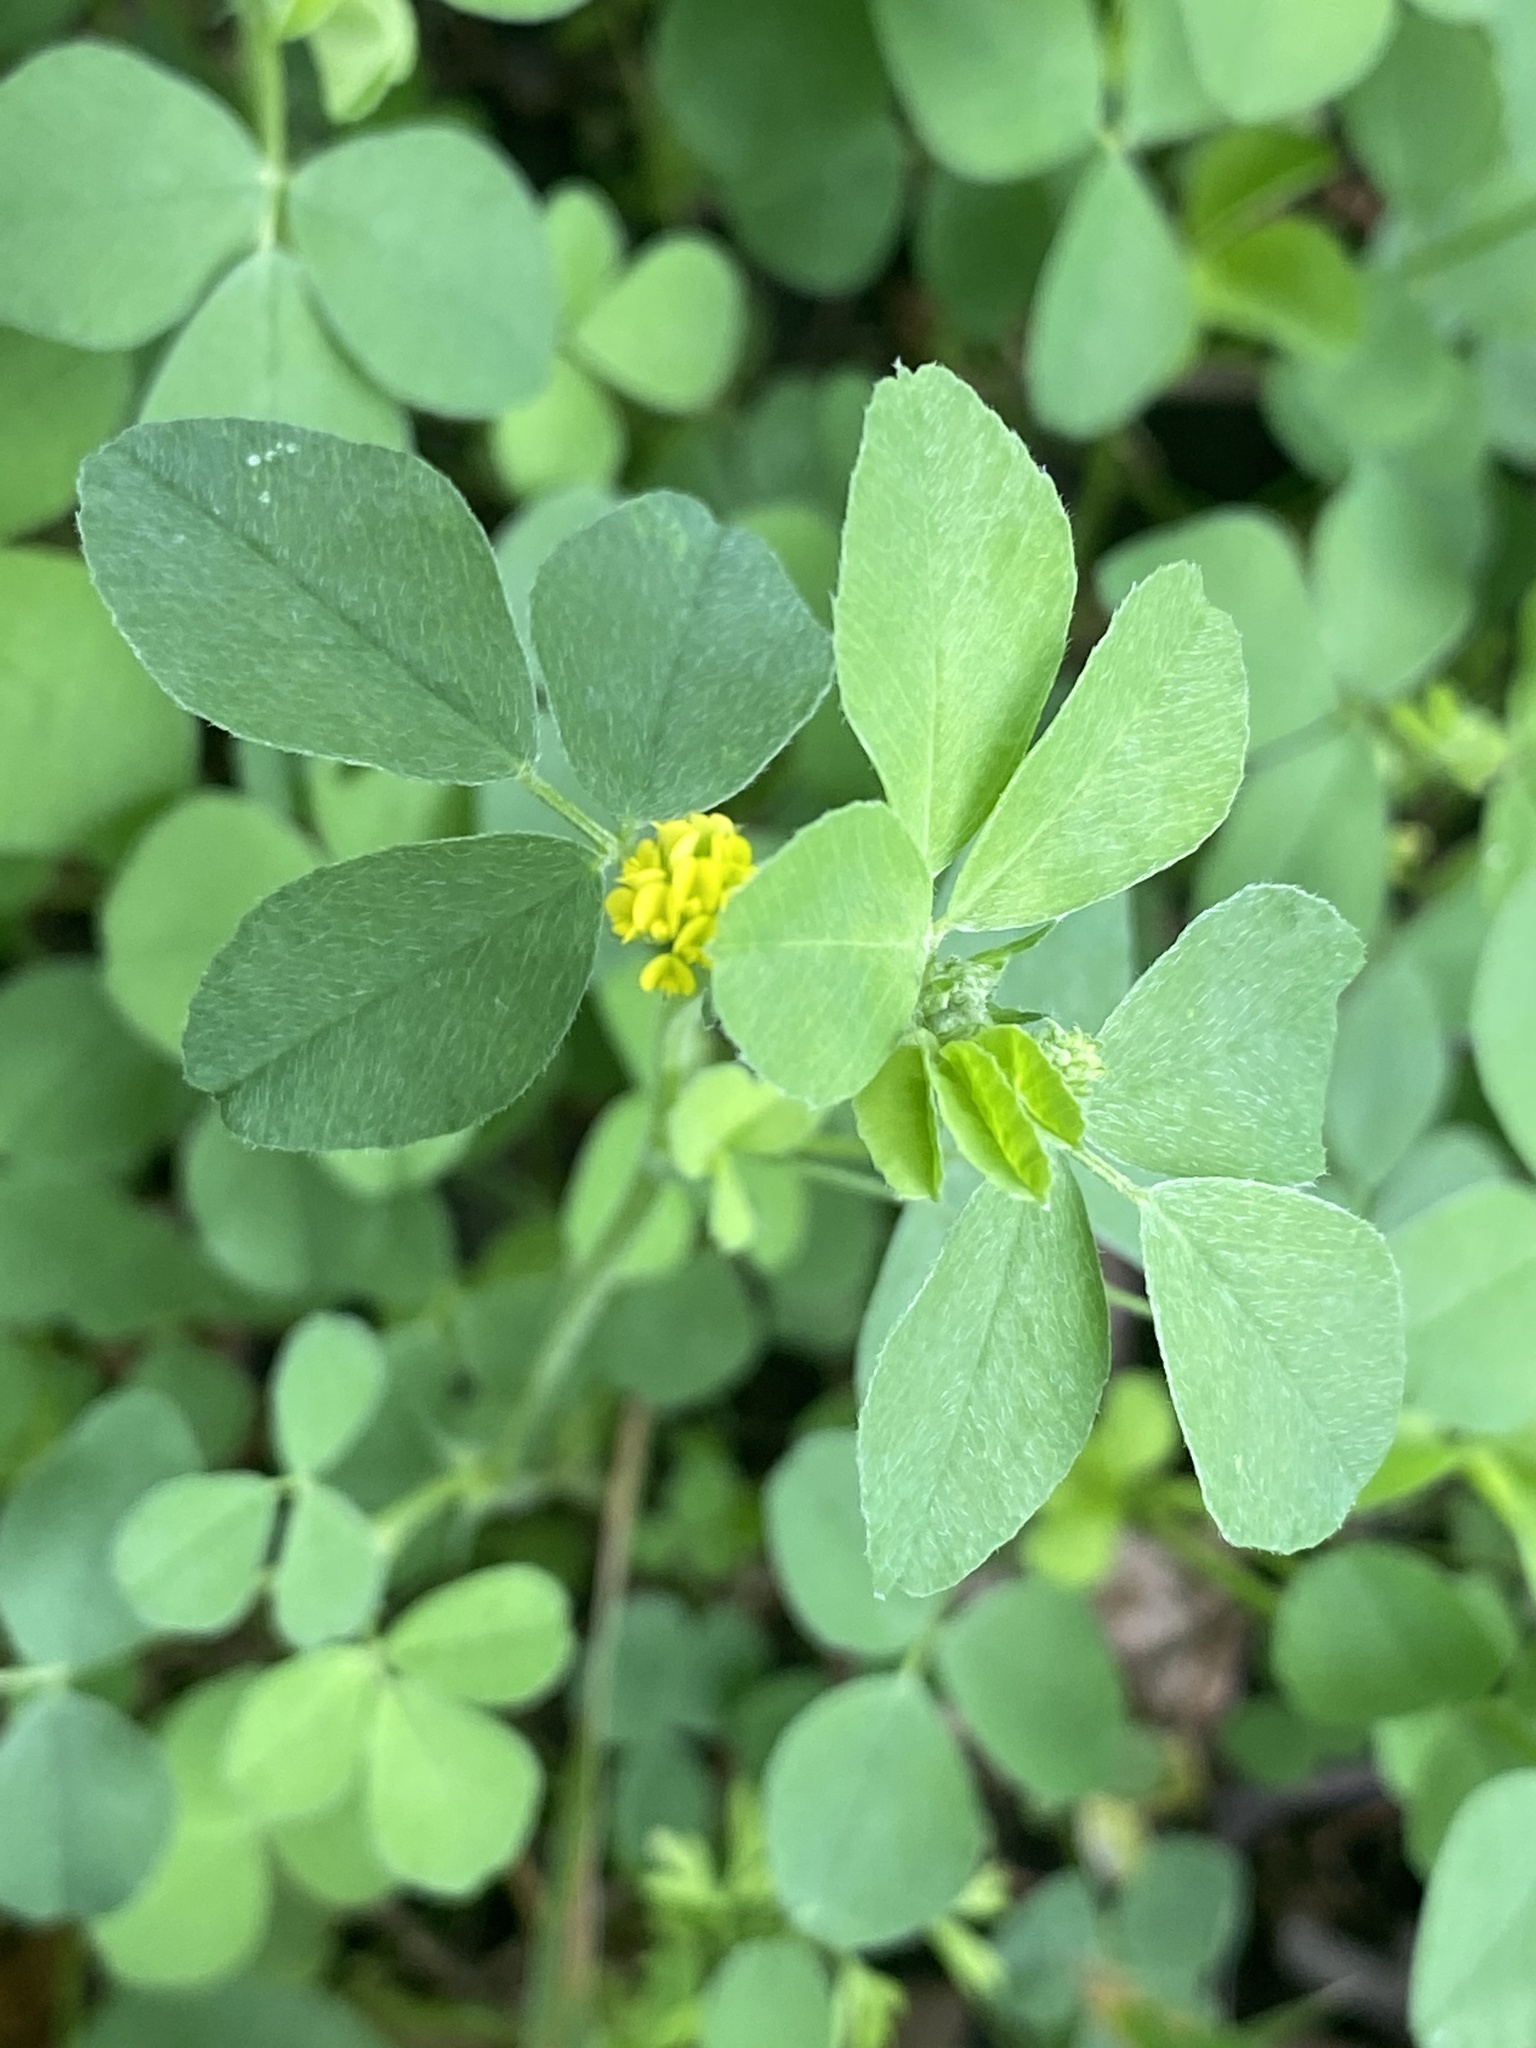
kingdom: Plantae
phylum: Tracheophyta
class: Magnoliopsida
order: Fabales
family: Fabaceae
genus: Medicago
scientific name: Medicago lupulina
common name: Black medick
